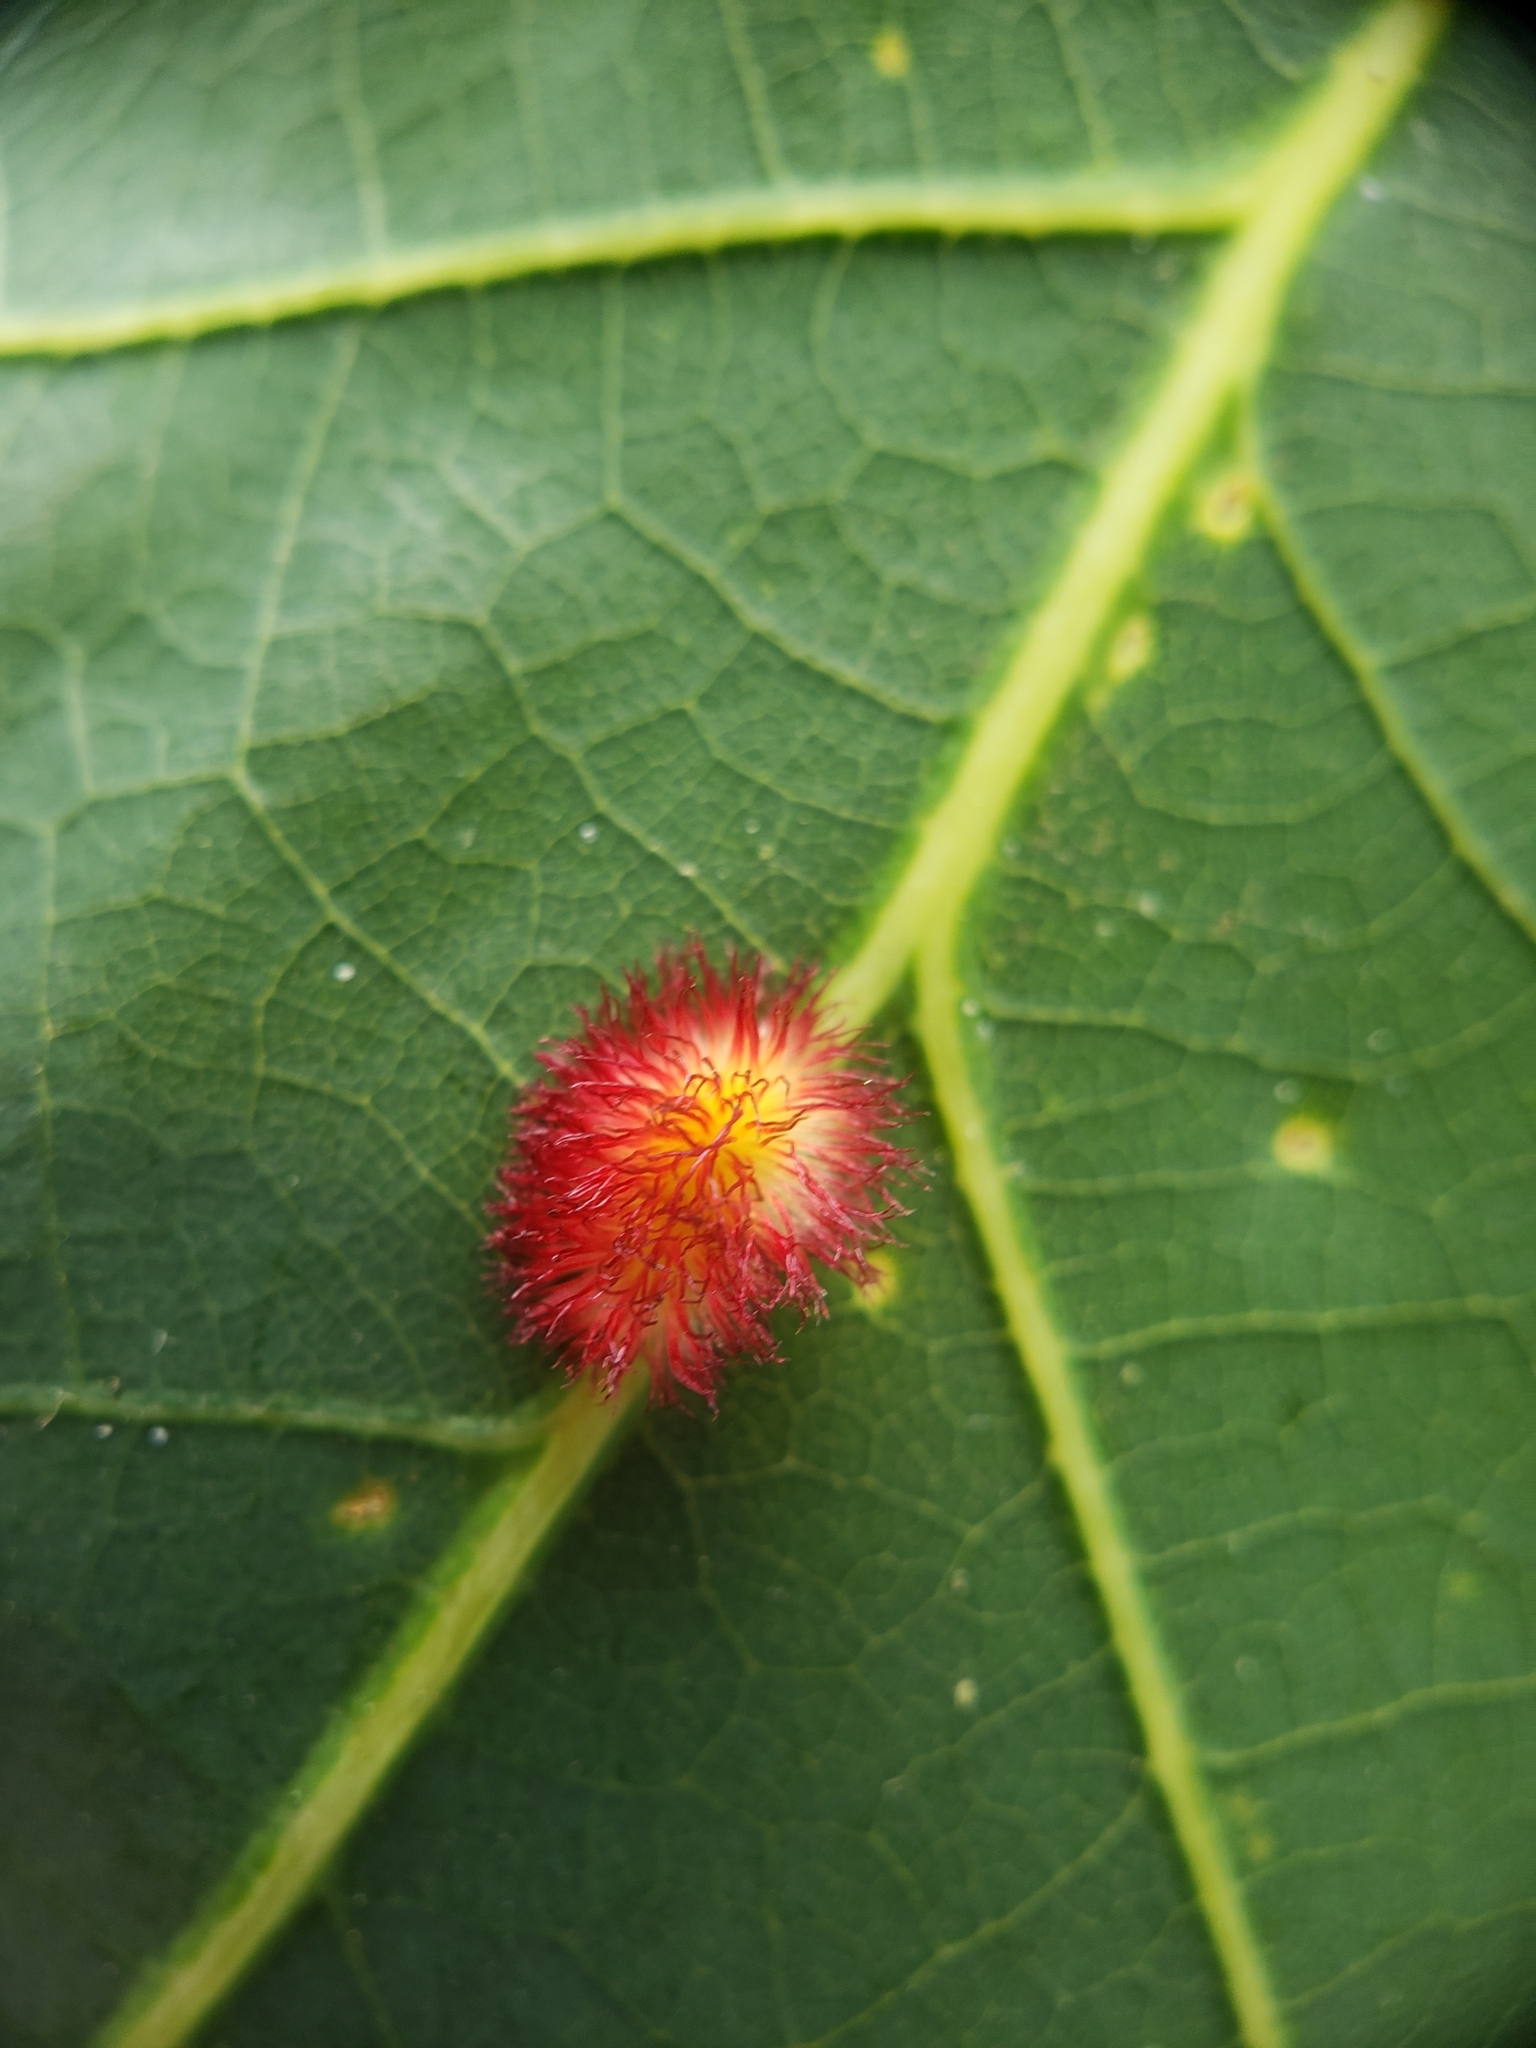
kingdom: Animalia
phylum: Arthropoda
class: Insecta
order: Hymenoptera
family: Cynipidae
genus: Acraspis
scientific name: Acraspis erinacei
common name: Hedgehog gall wasp
